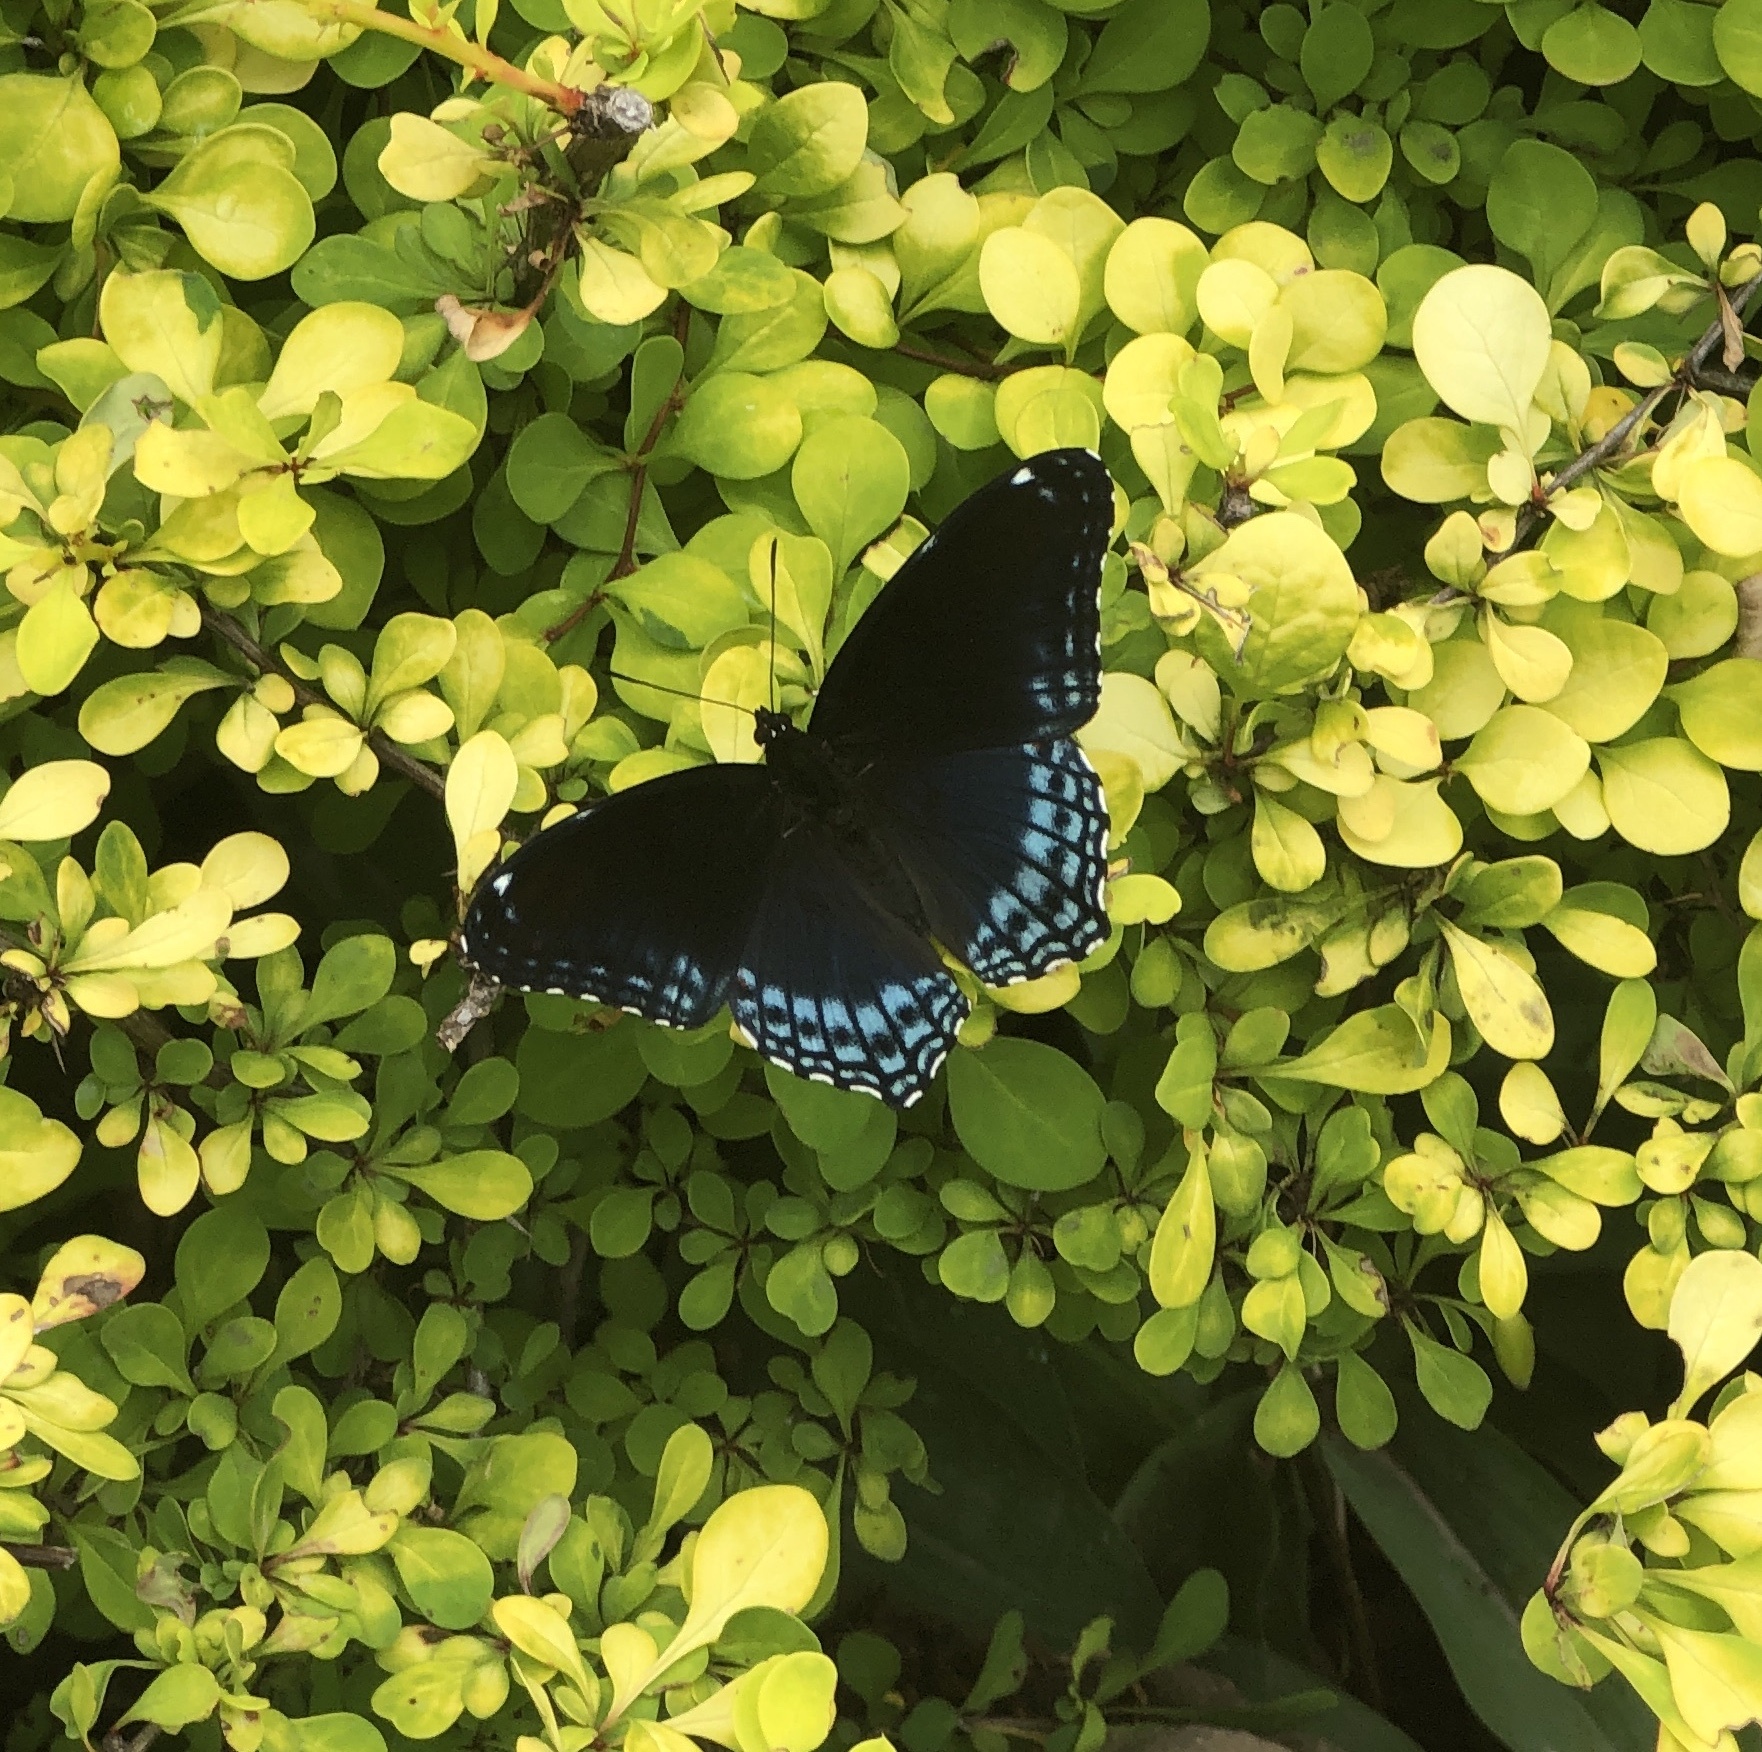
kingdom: Animalia
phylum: Arthropoda
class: Insecta
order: Lepidoptera
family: Nymphalidae
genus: Limenitis
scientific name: Limenitis astyanax
